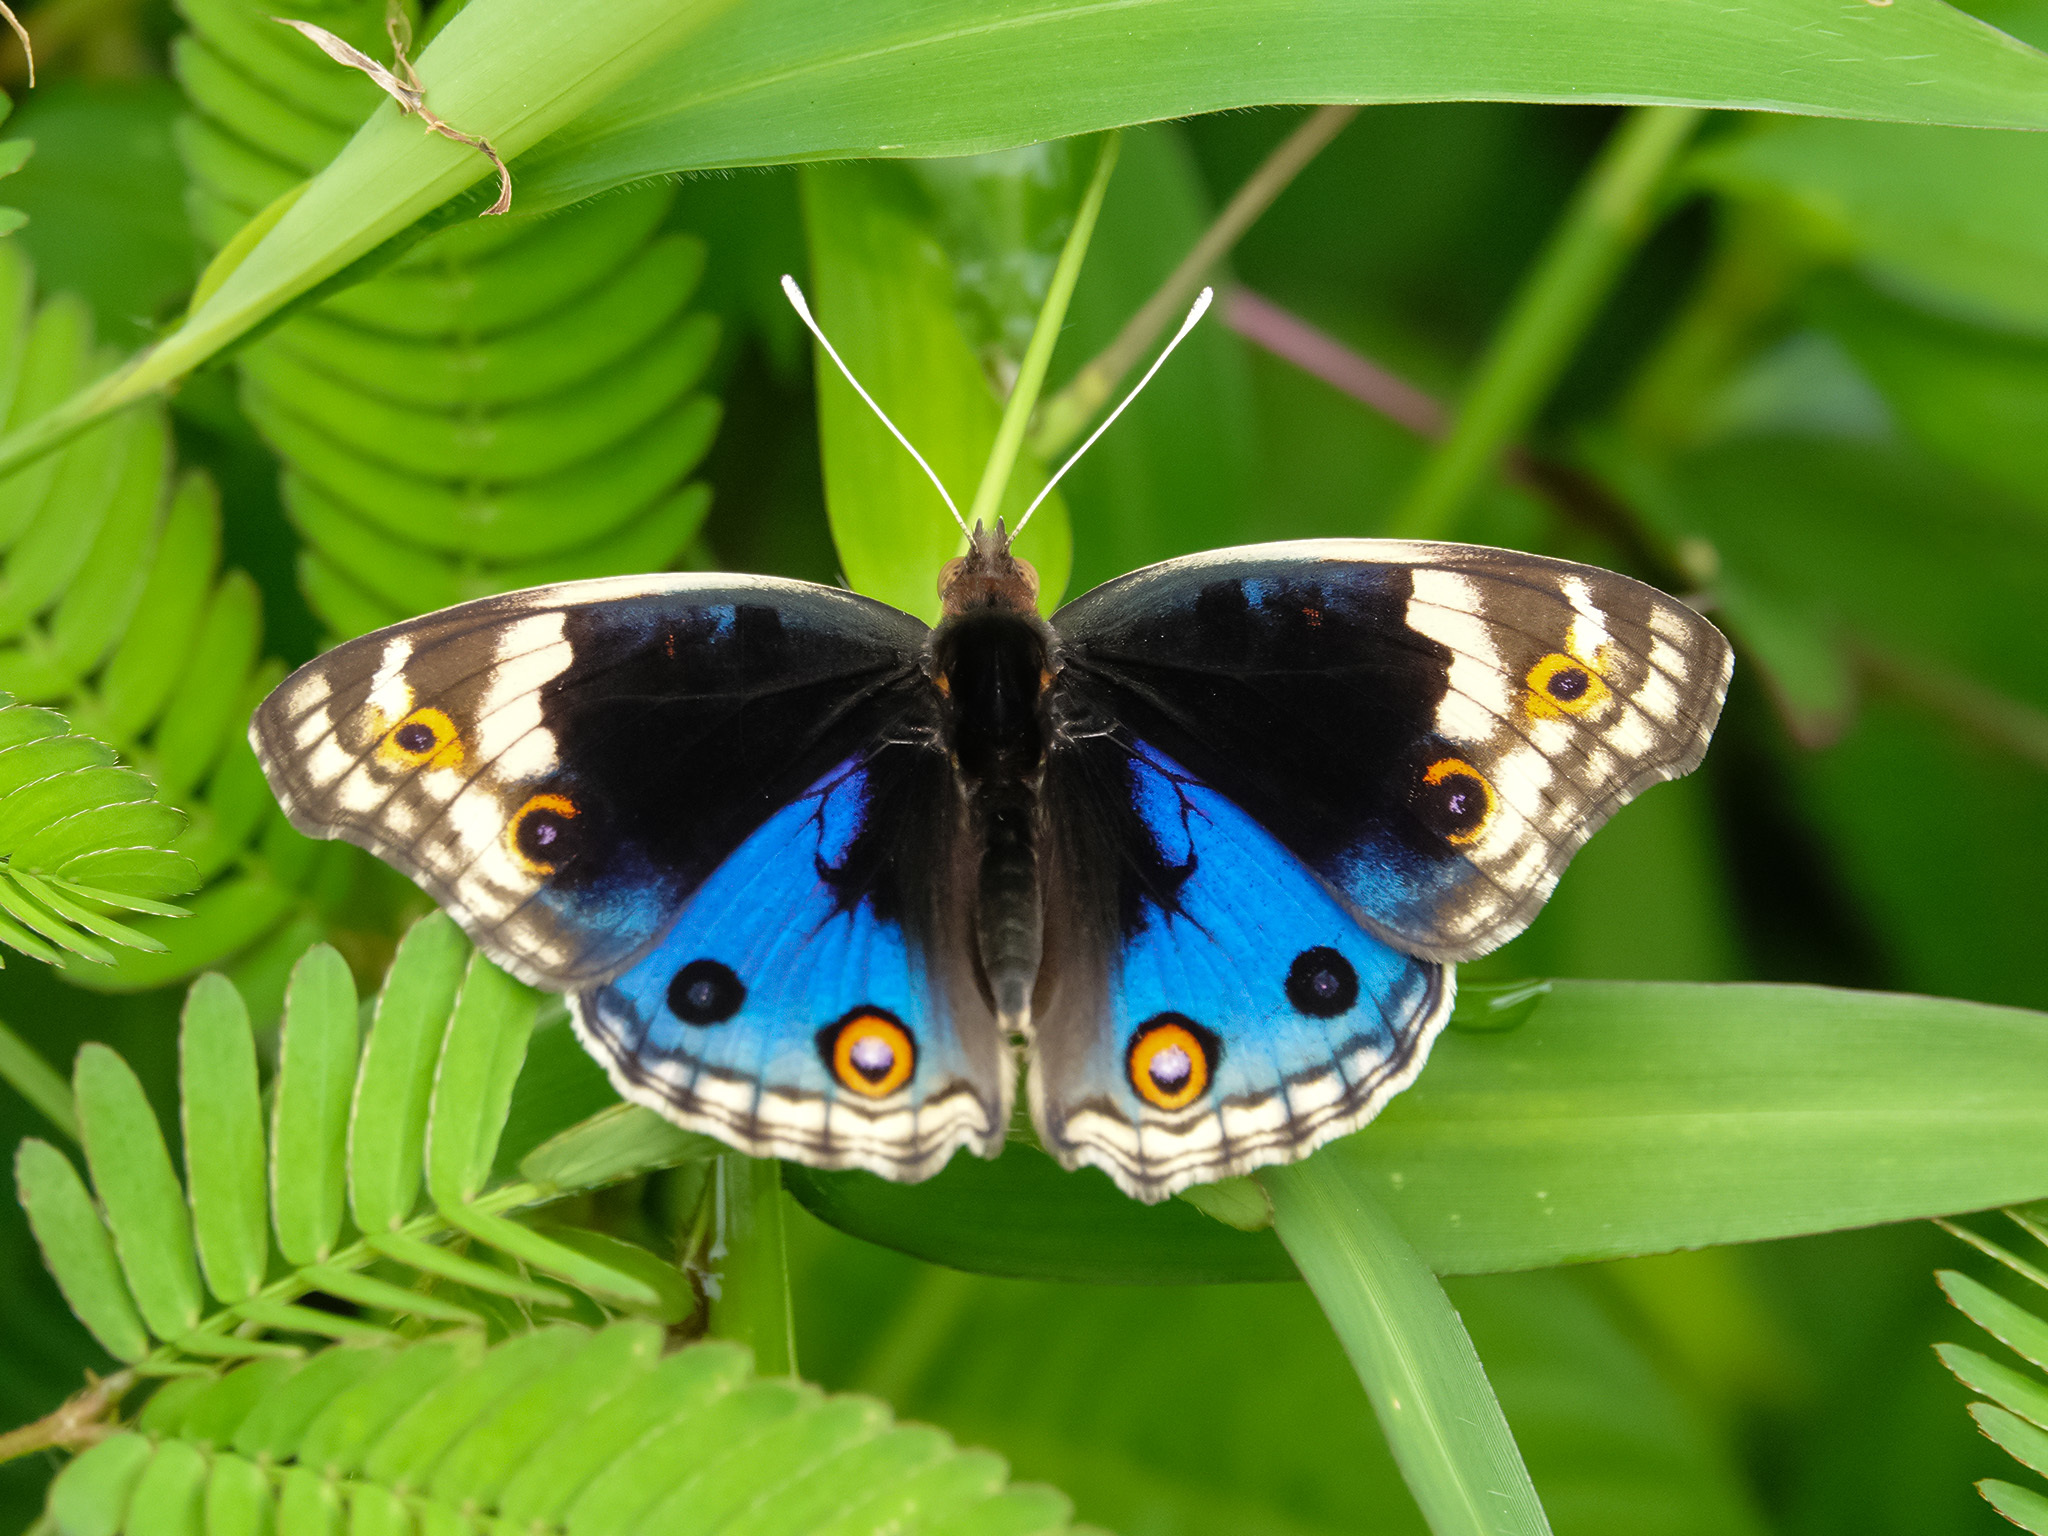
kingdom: Animalia
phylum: Arthropoda
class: Insecta
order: Lepidoptera
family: Nymphalidae
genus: Junonia
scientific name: Junonia orithya
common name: Blue pansy
